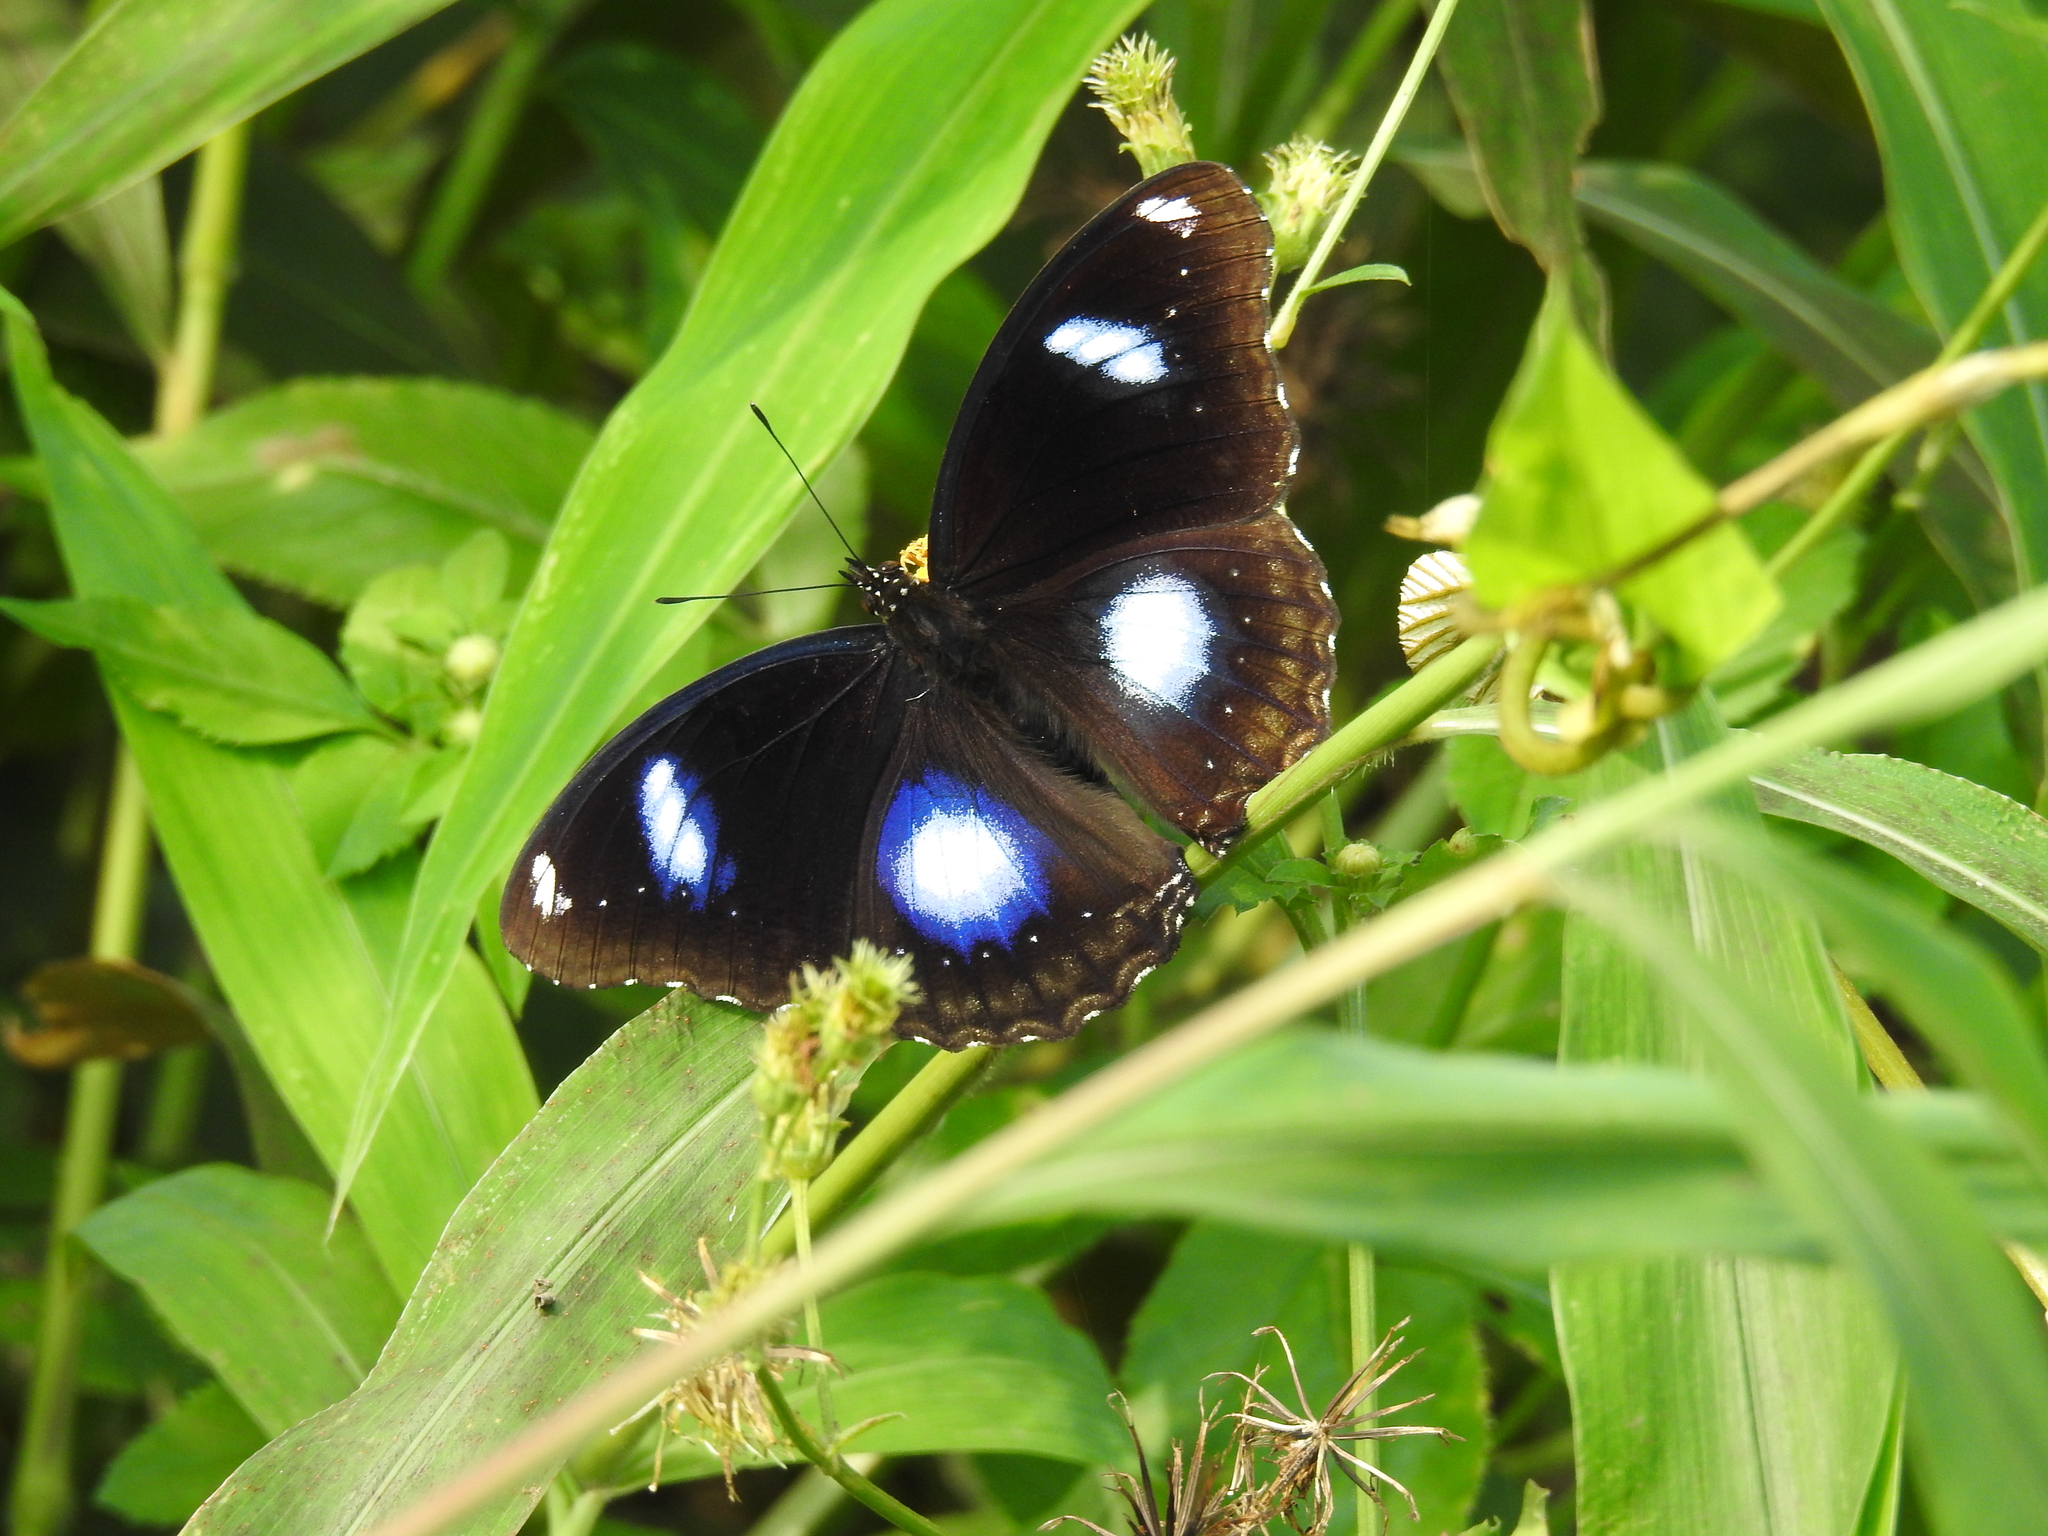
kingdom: Animalia
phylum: Arthropoda
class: Insecta
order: Lepidoptera
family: Nymphalidae
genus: Hypolimnas
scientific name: Hypolimnas bolina
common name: Great eggfly
